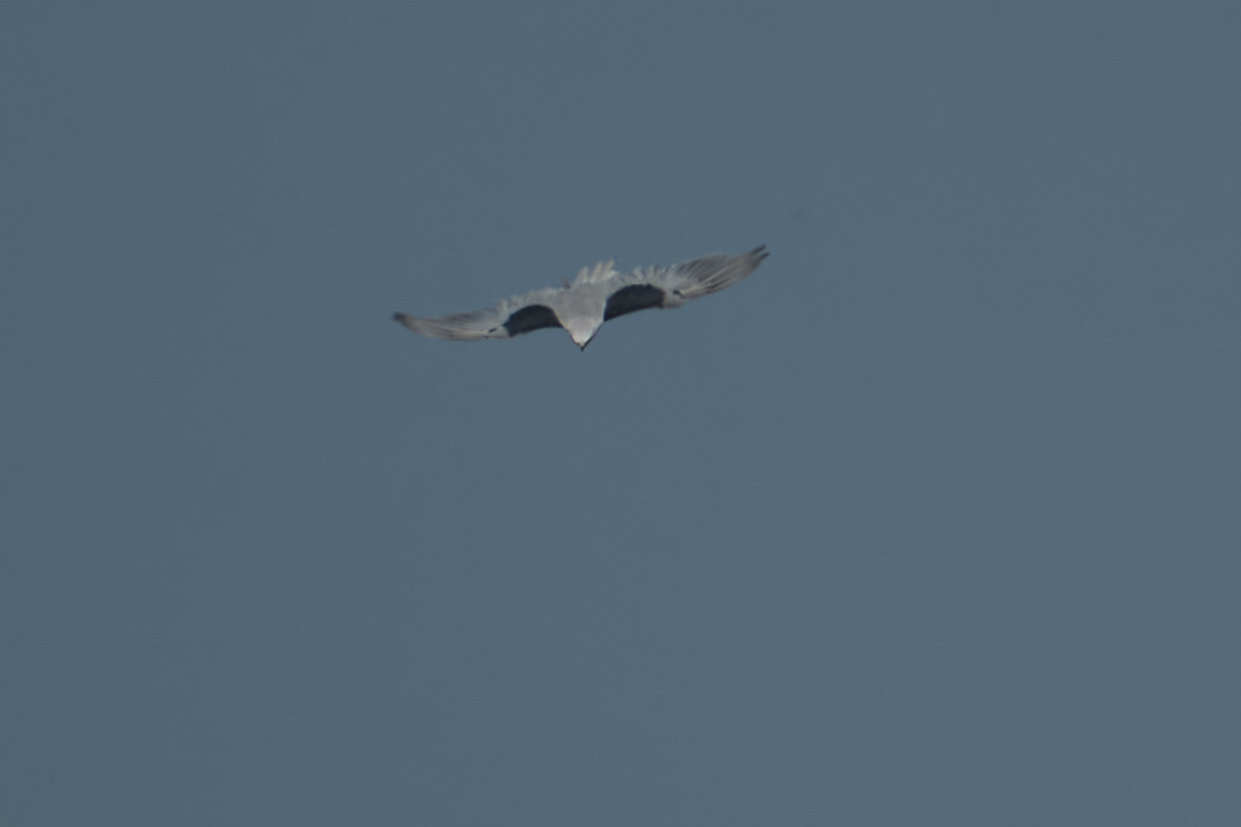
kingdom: Animalia
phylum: Chordata
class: Aves
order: Accipitriformes
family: Accipitridae
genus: Elanus
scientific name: Elanus leucurus
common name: White-tailed kite
